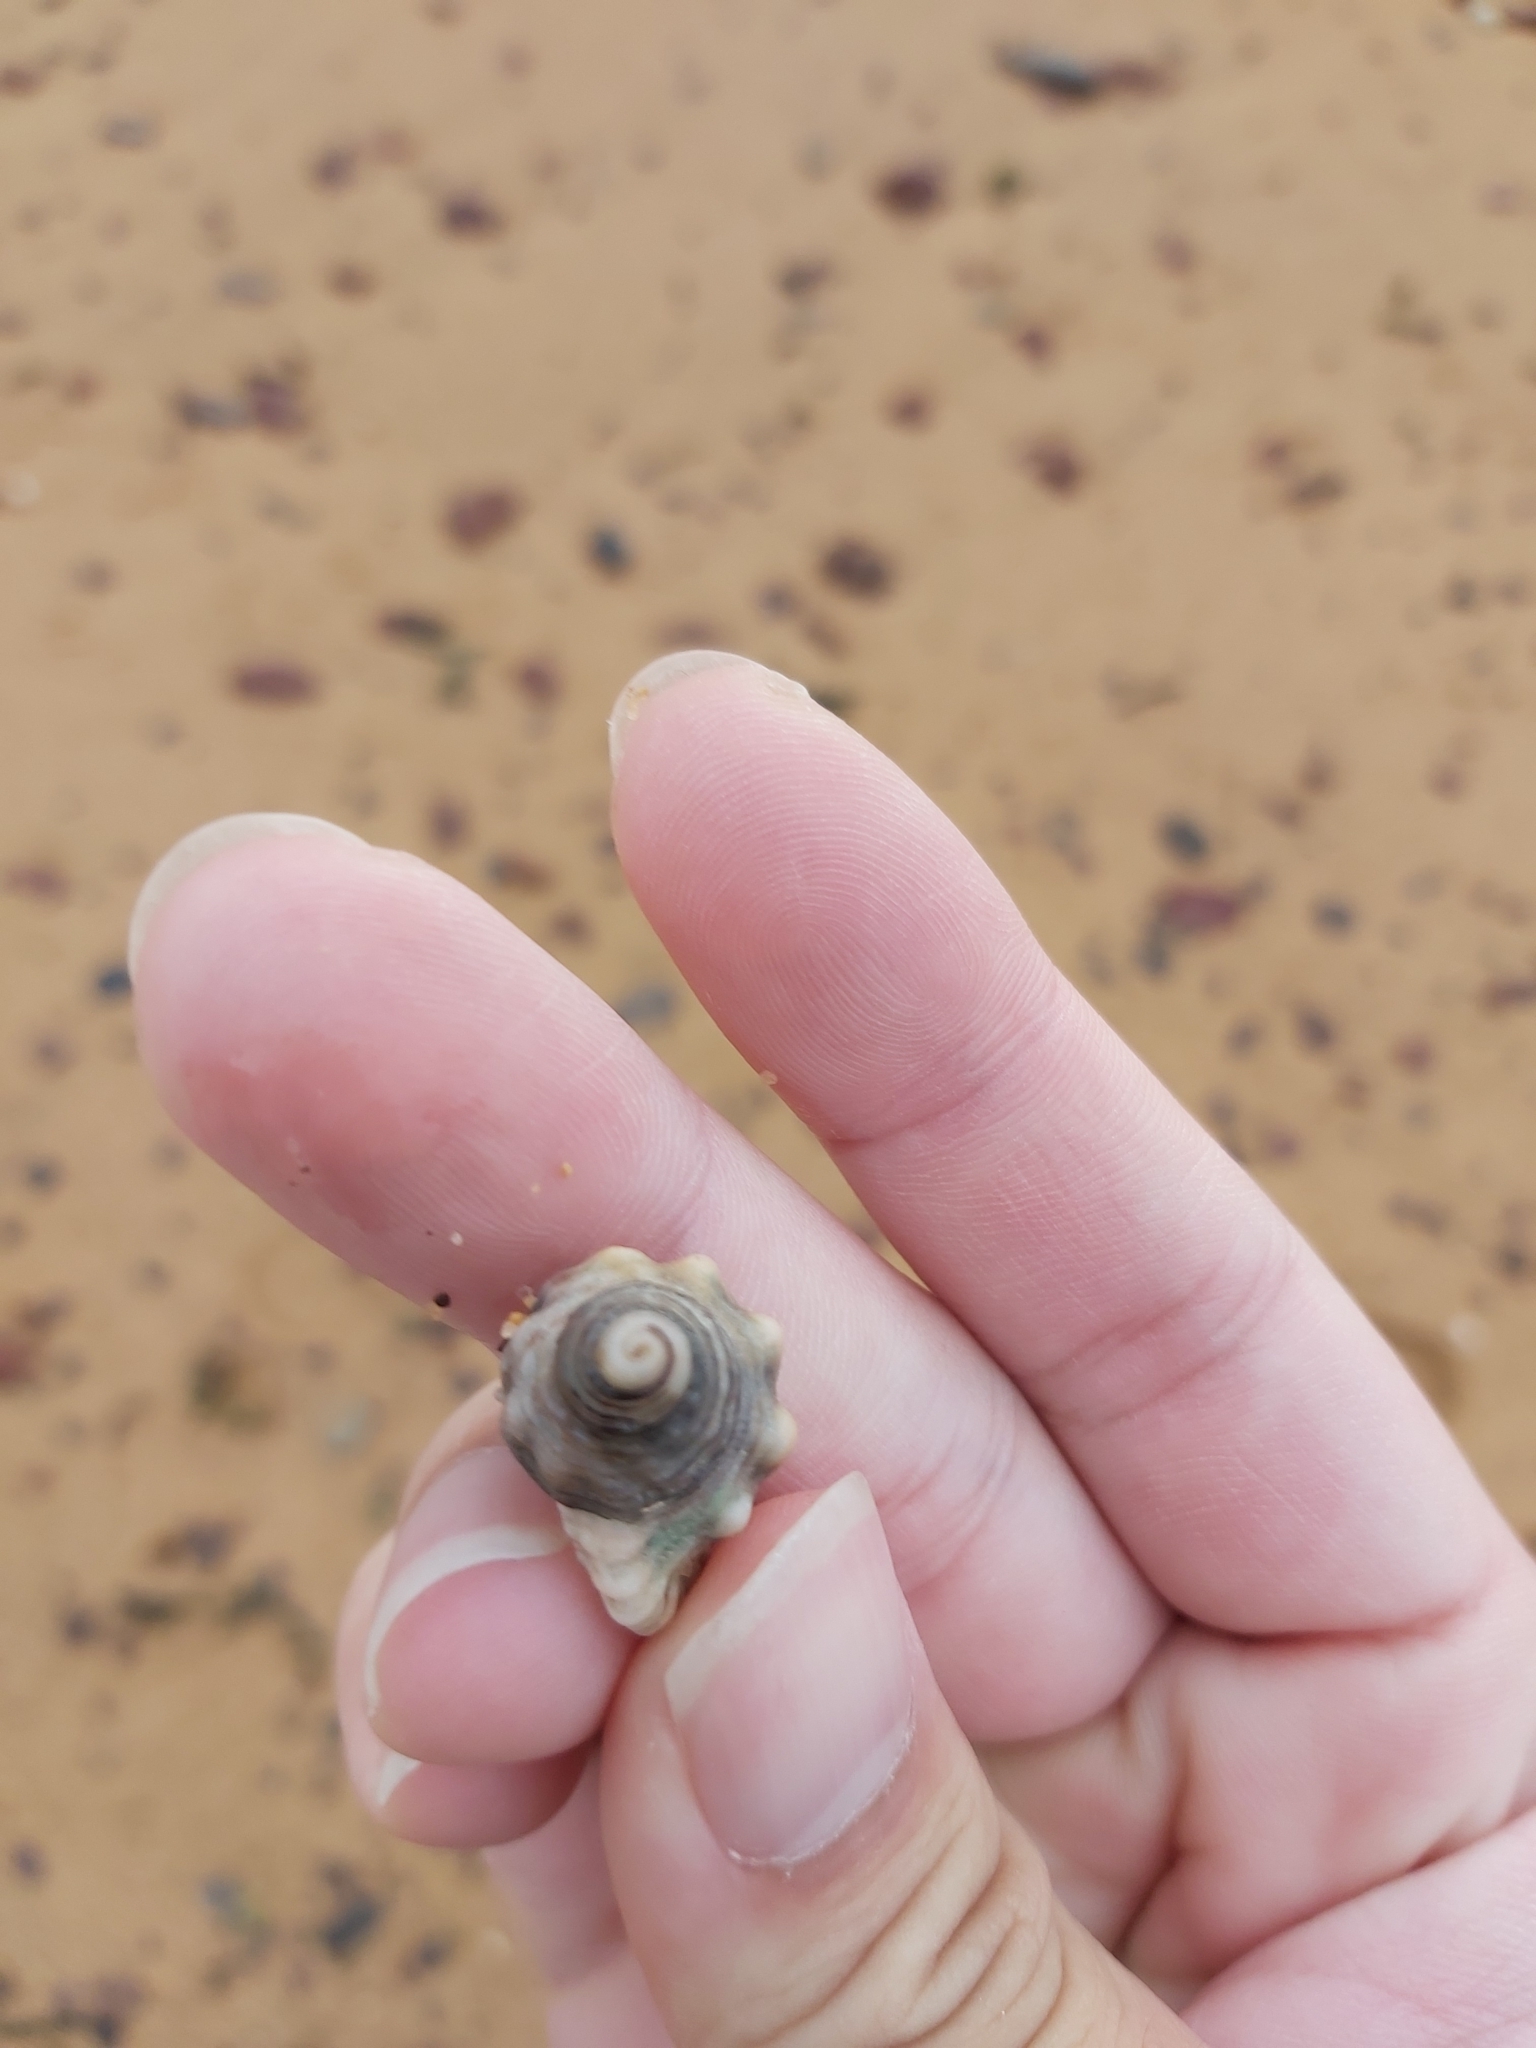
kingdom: Animalia
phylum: Mollusca
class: Gastropoda
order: Littorinimorpha
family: Cymatiidae
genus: Cabestana
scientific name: Cabestana spengleri
